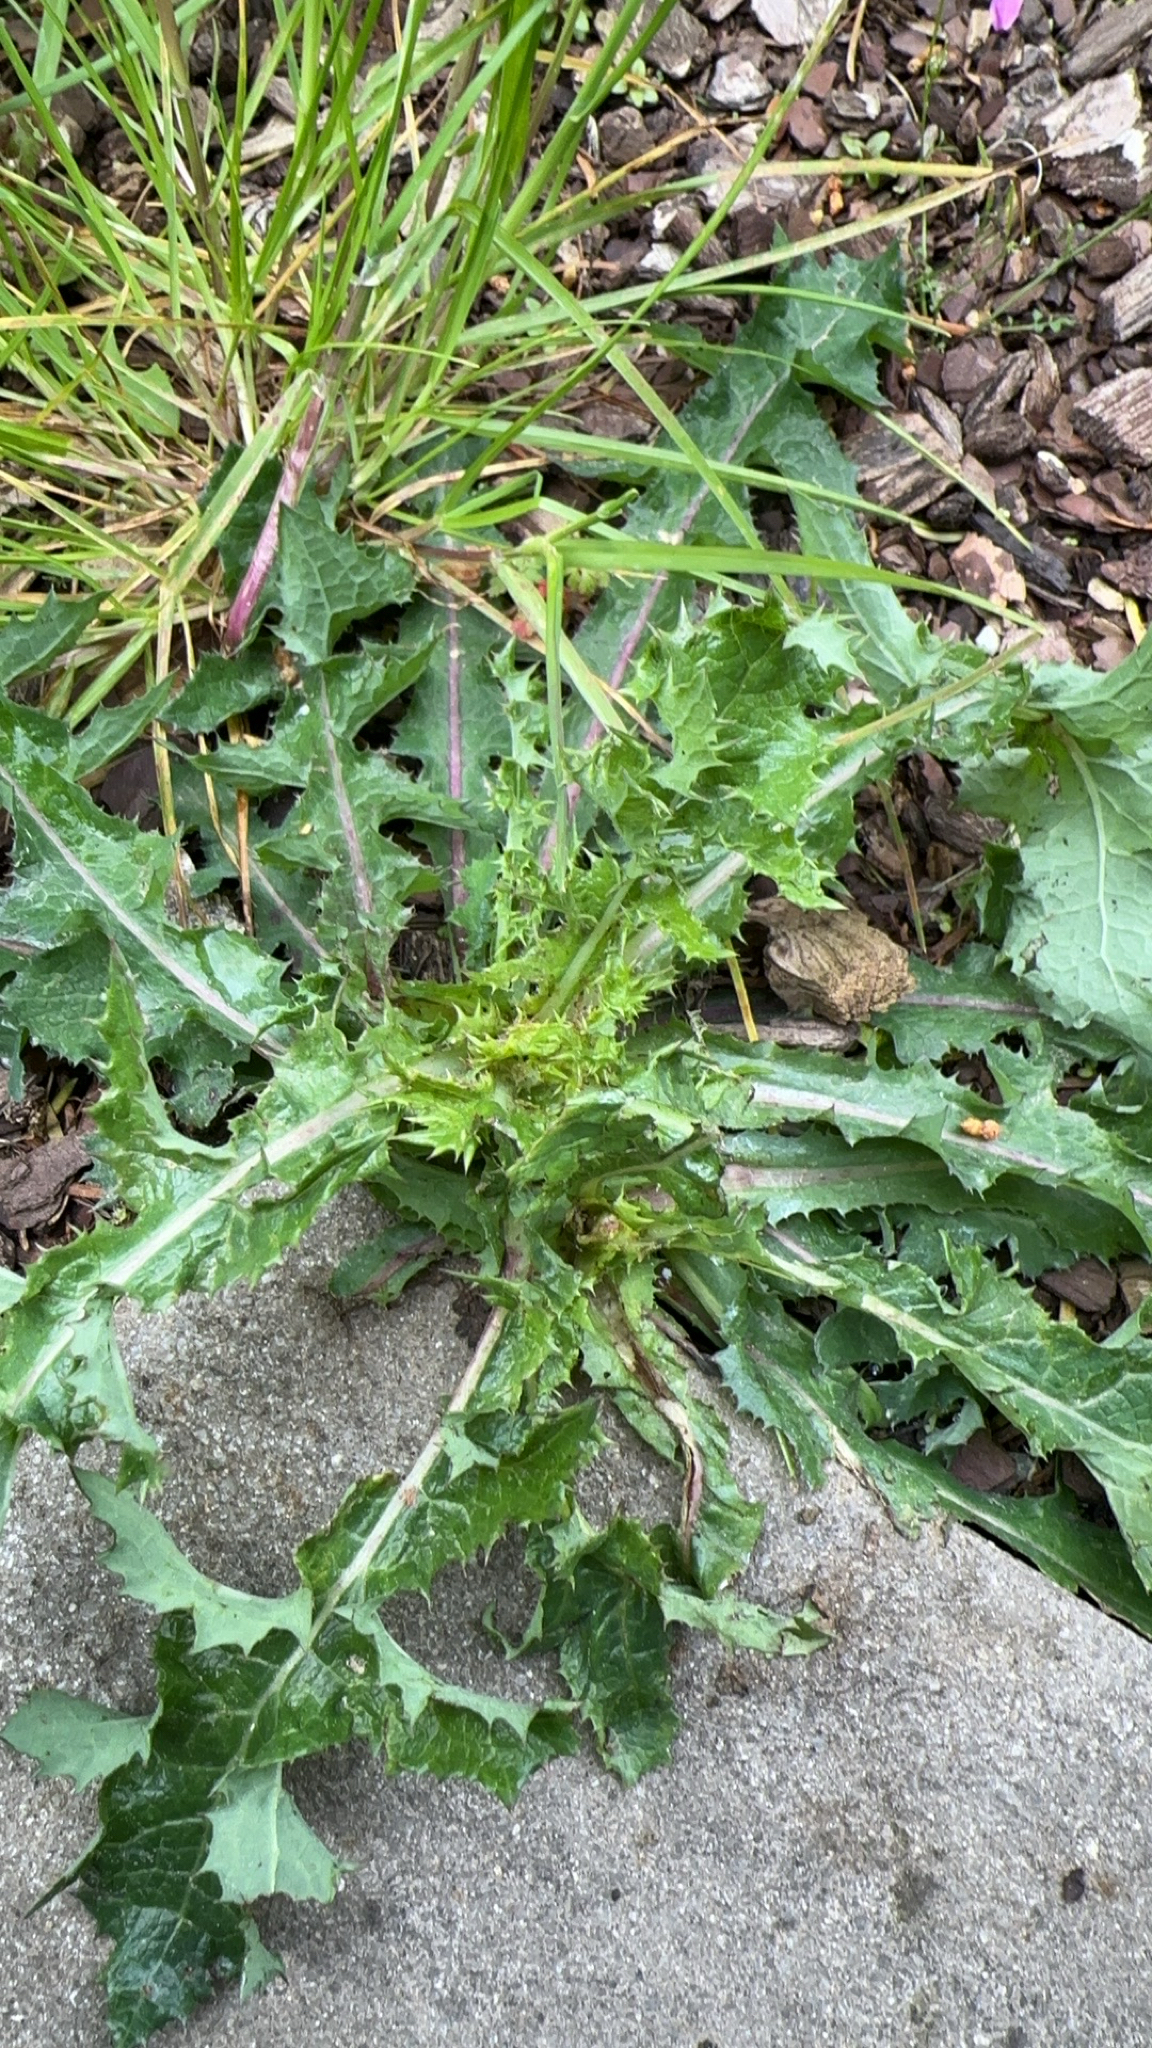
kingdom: Plantae
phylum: Tracheophyta
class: Magnoliopsida
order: Asterales
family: Asteraceae
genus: Sonchus
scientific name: Sonchus asper
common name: Prickly sow-thistle
